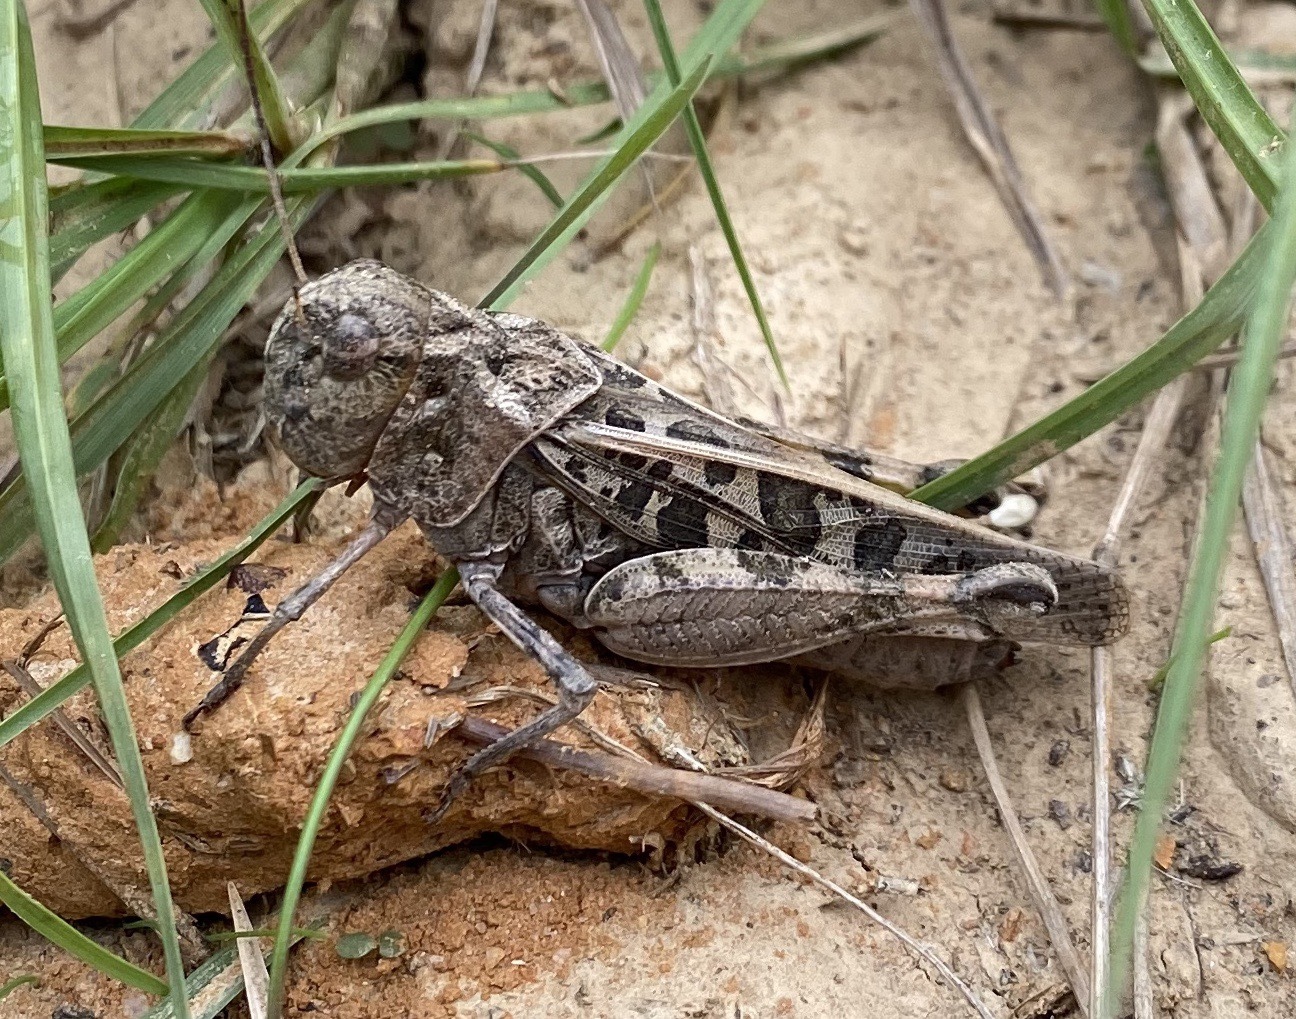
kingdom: Animalia
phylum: Arthropoda
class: Insecta
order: Orthoptera
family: Acrididae
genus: Hippiscus
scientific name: Hippiscus ocelote
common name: Wrinkled grasshopper
